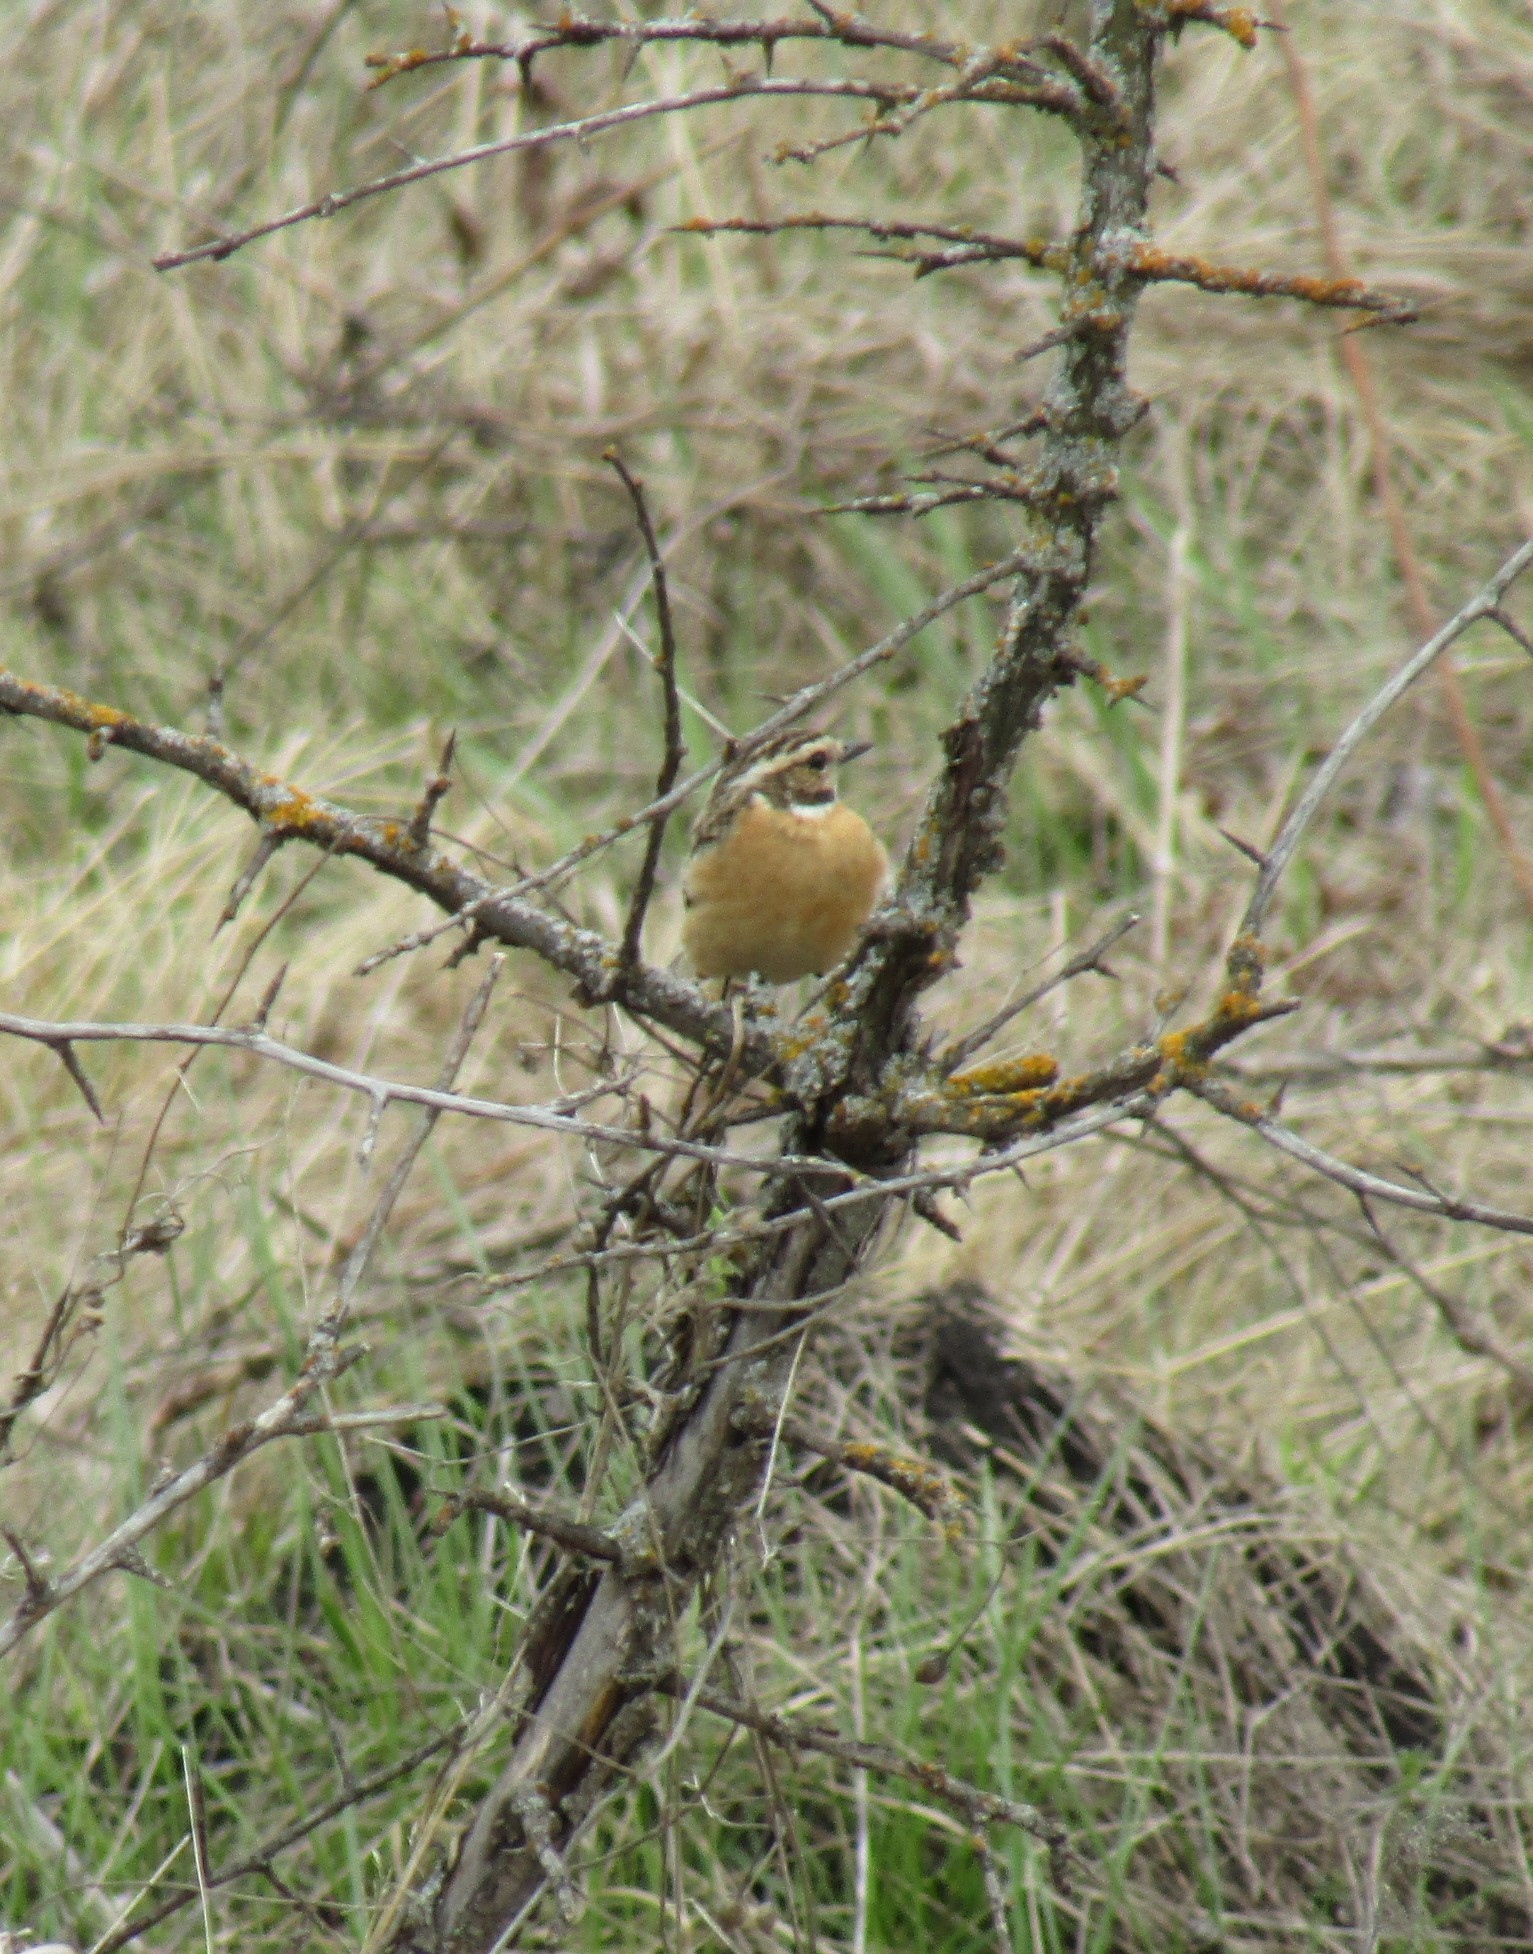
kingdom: Animalia
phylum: Chordata
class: Aves
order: Passeriformes
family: Muscicapidae
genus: Saxicola
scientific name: Saxicola rubetra
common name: Whinchat
